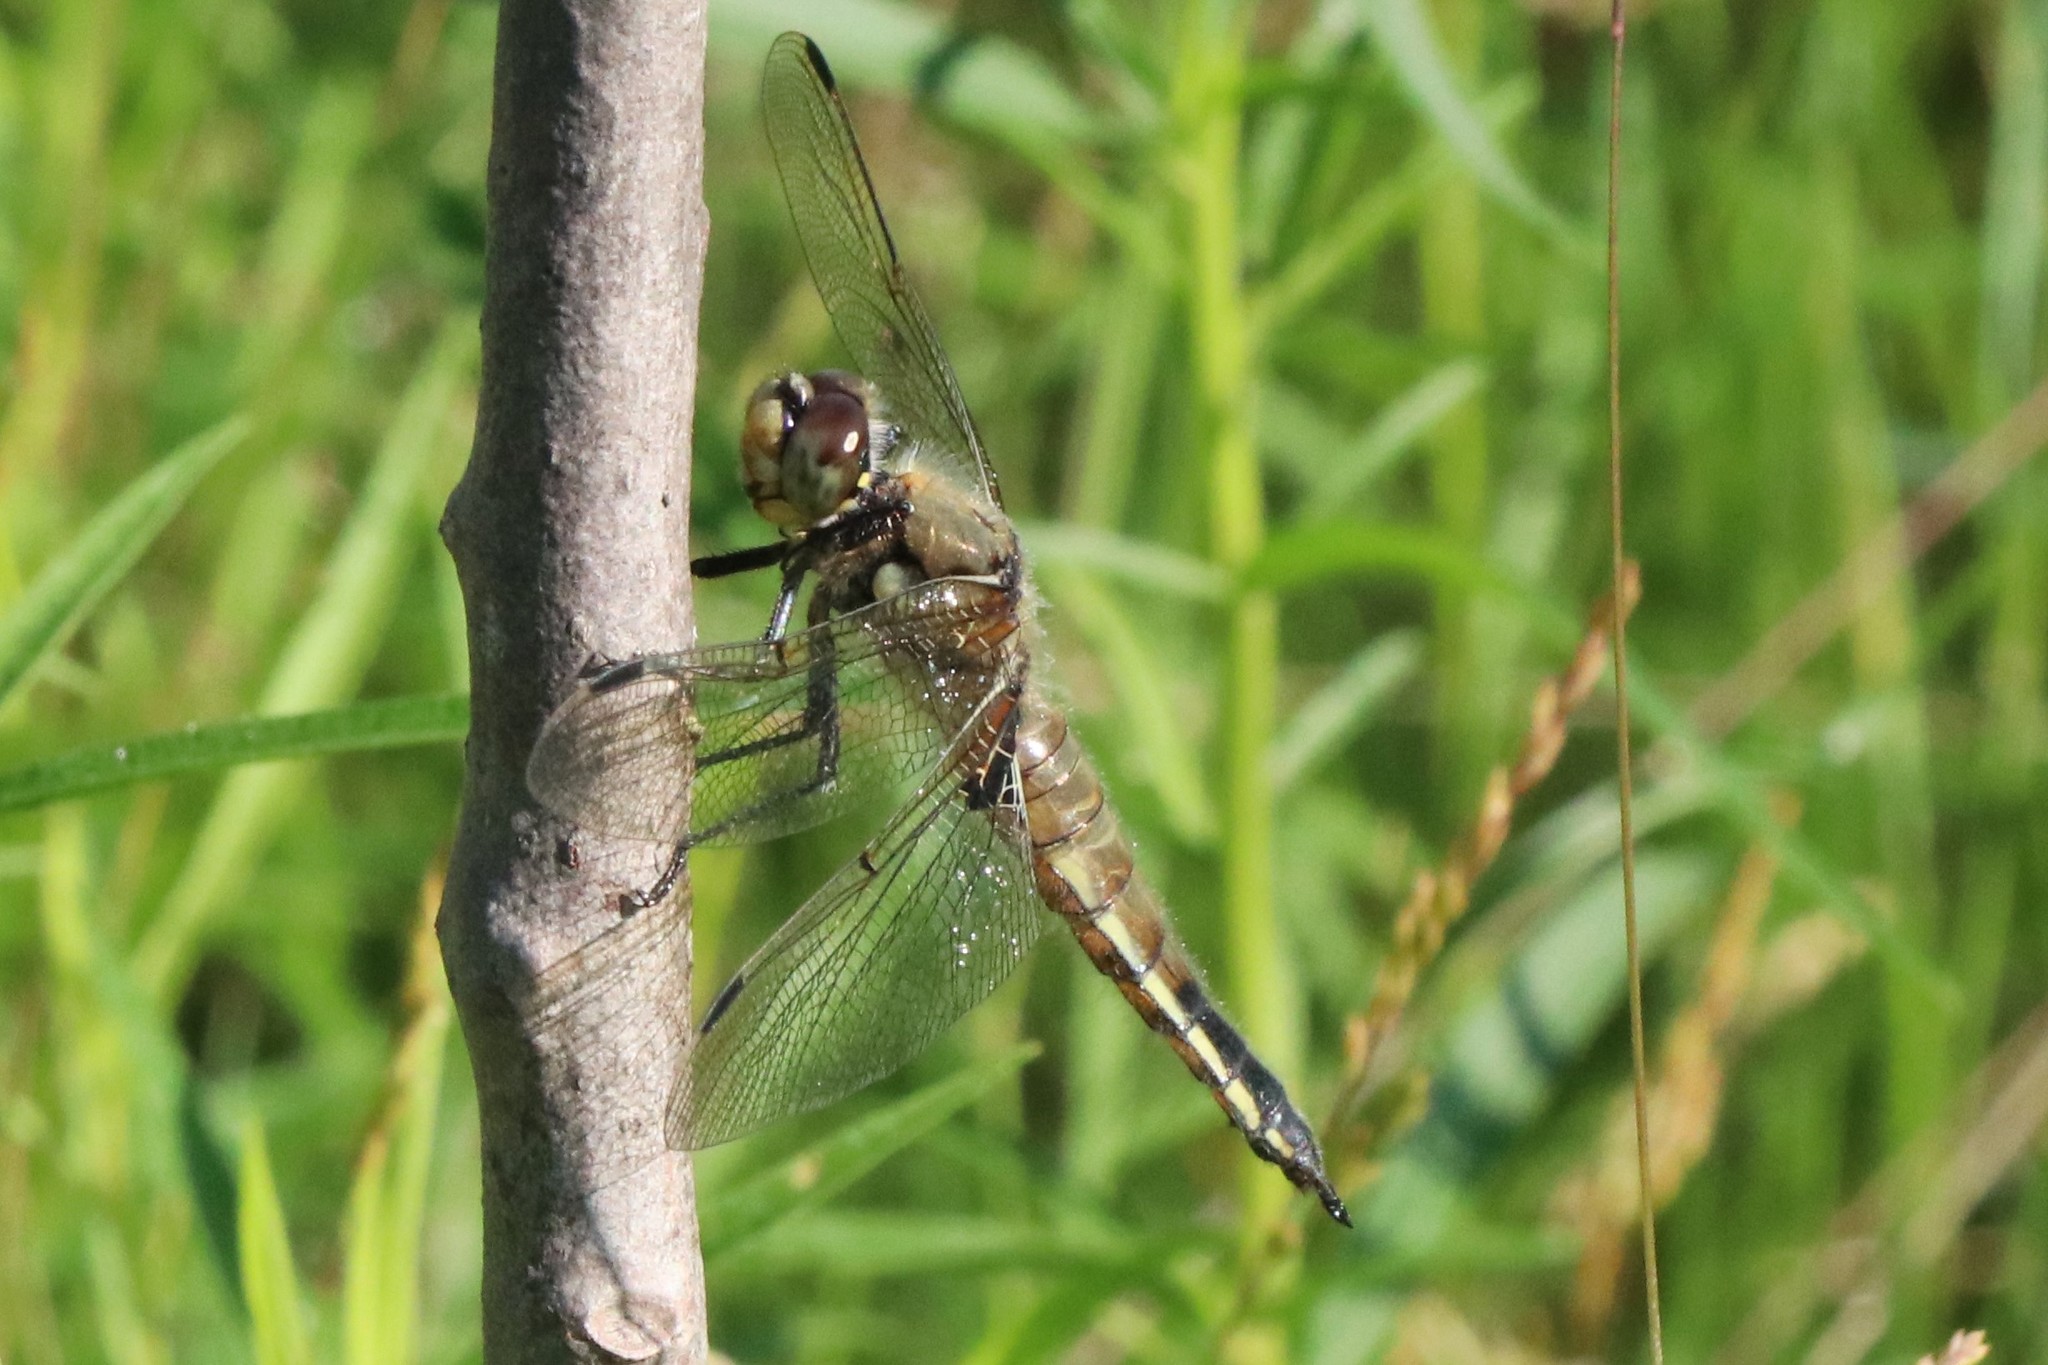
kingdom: Animalia
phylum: Arthropoda
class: Insecta
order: Odonata
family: Libellulidae
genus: Libellula
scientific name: Libellula quadrimaculata
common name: Four-spotted chaser
